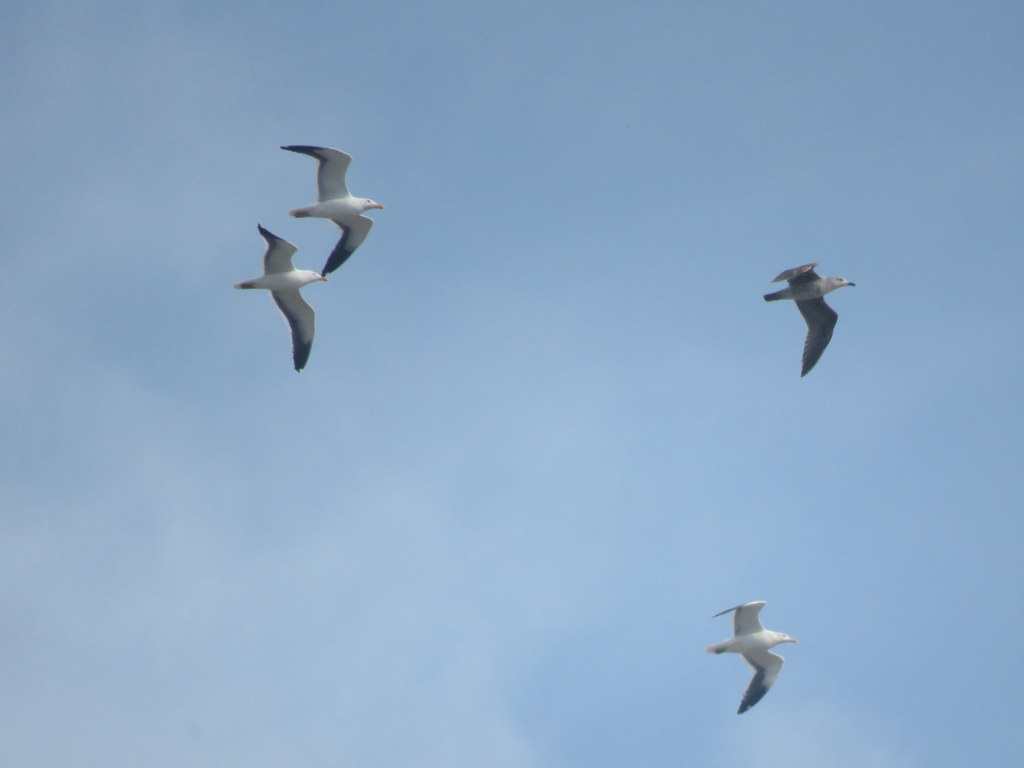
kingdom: Animalia
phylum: Chordata
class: Aves
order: Charadriiformes
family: Laridae
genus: Larus
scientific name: Larus dominicanus
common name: Kelp gull
